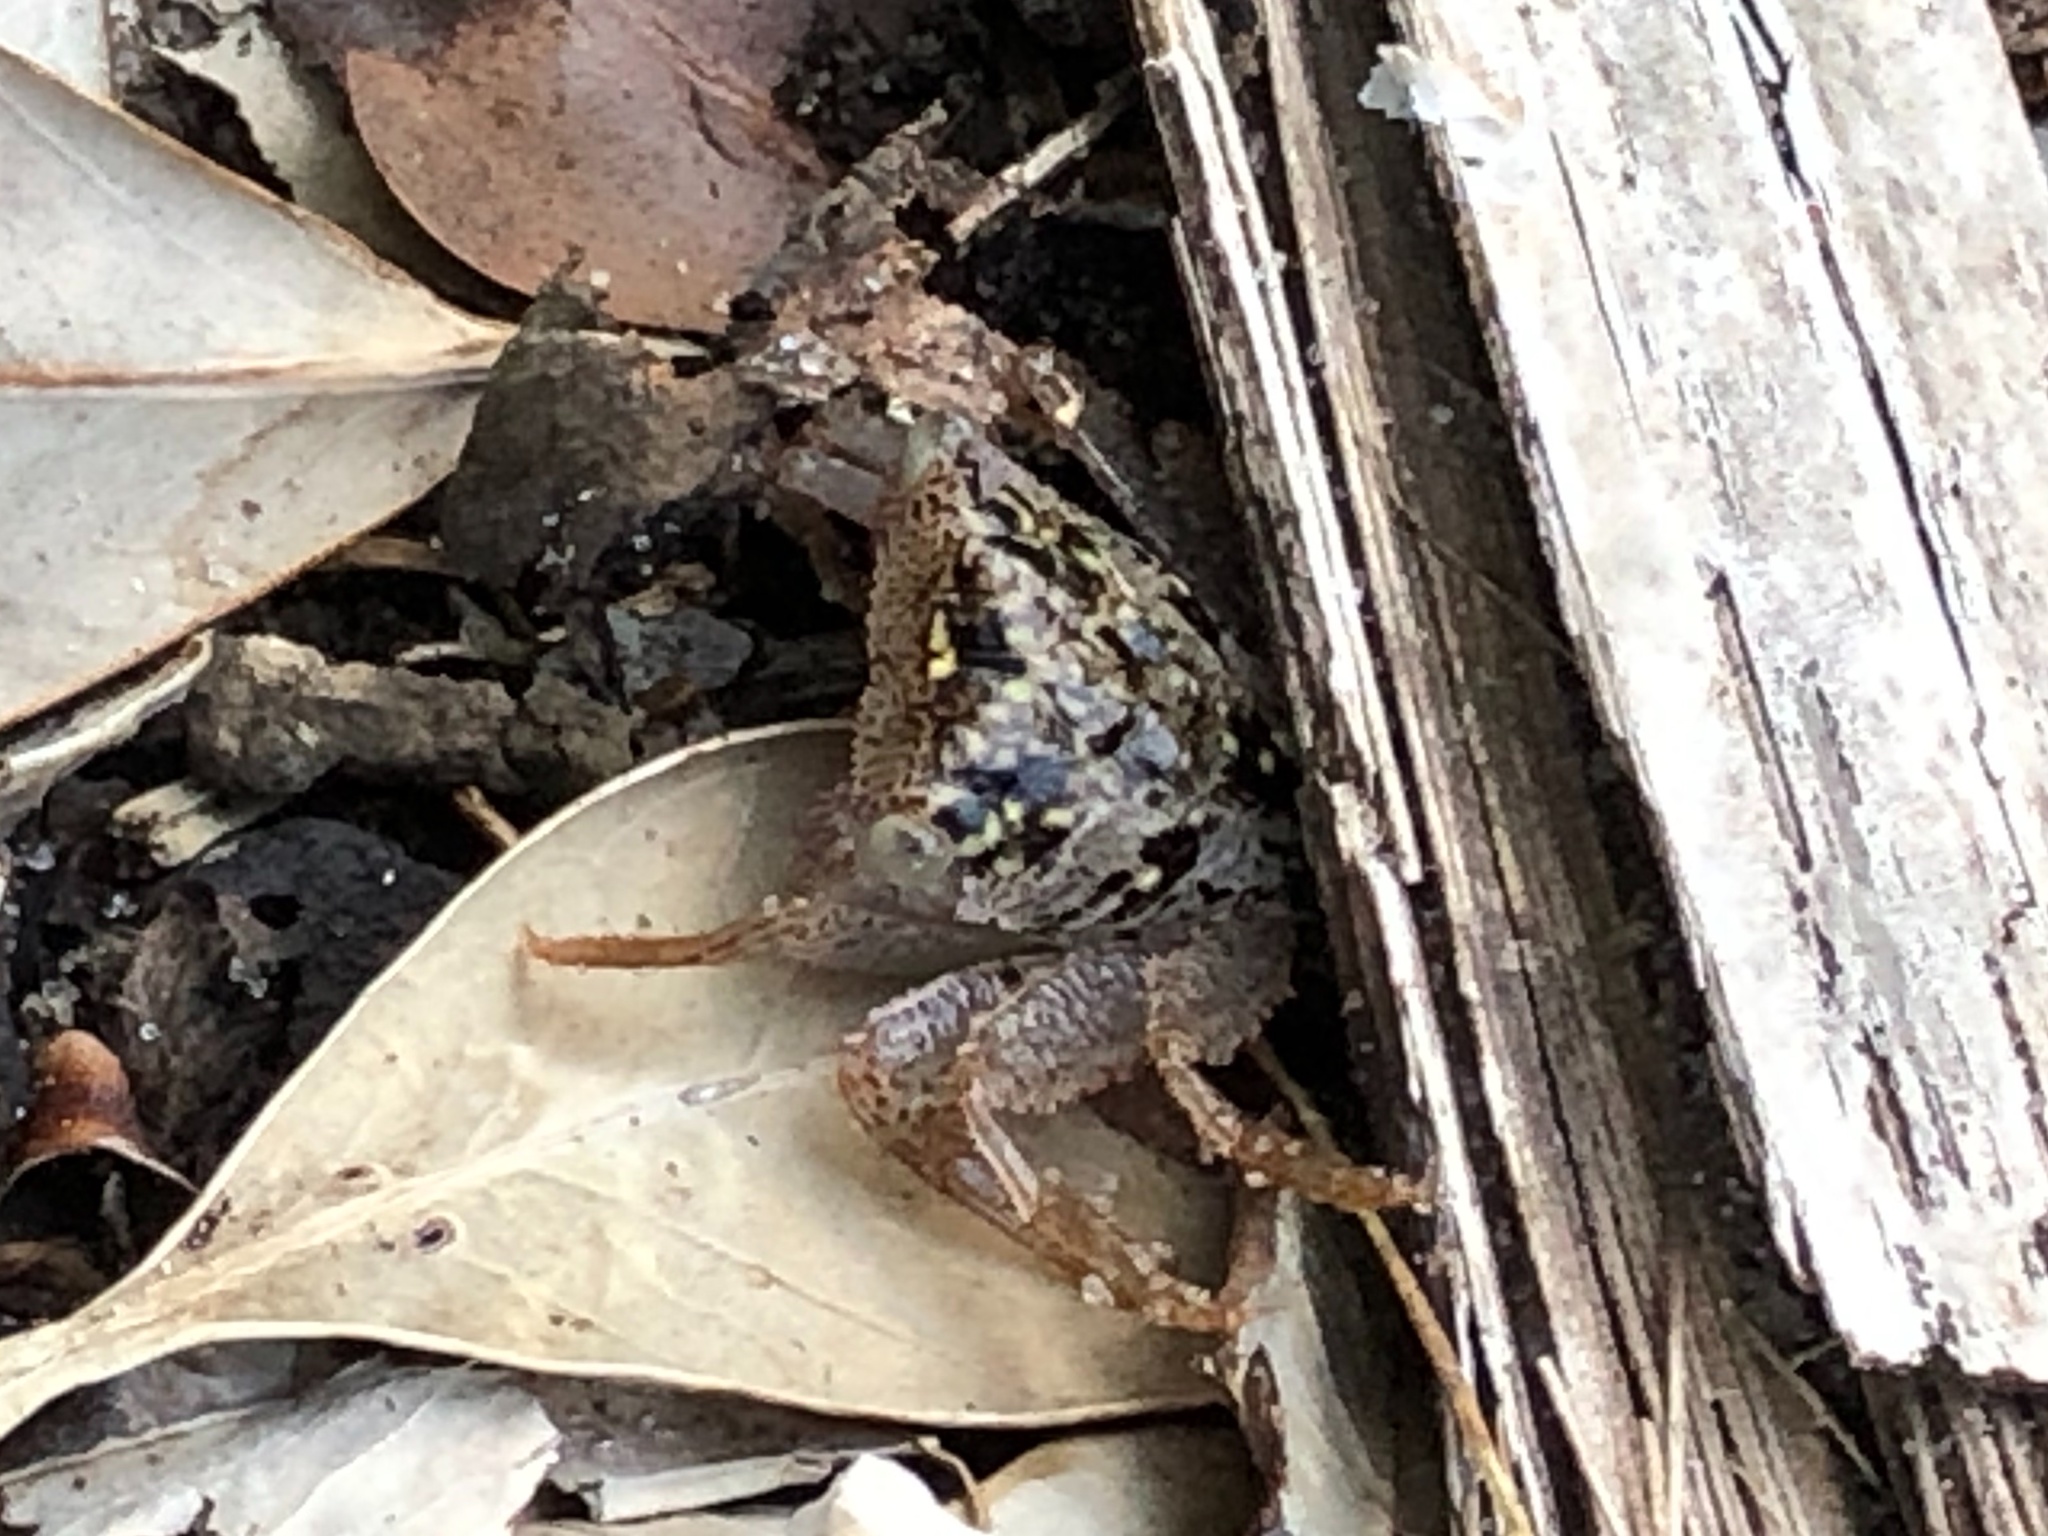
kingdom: Animalia
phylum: Arthropoda
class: Malacostraca
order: Decapoda
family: Sesarmidae
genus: Aratus
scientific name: Aratus pisonii
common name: Mangrove crab
